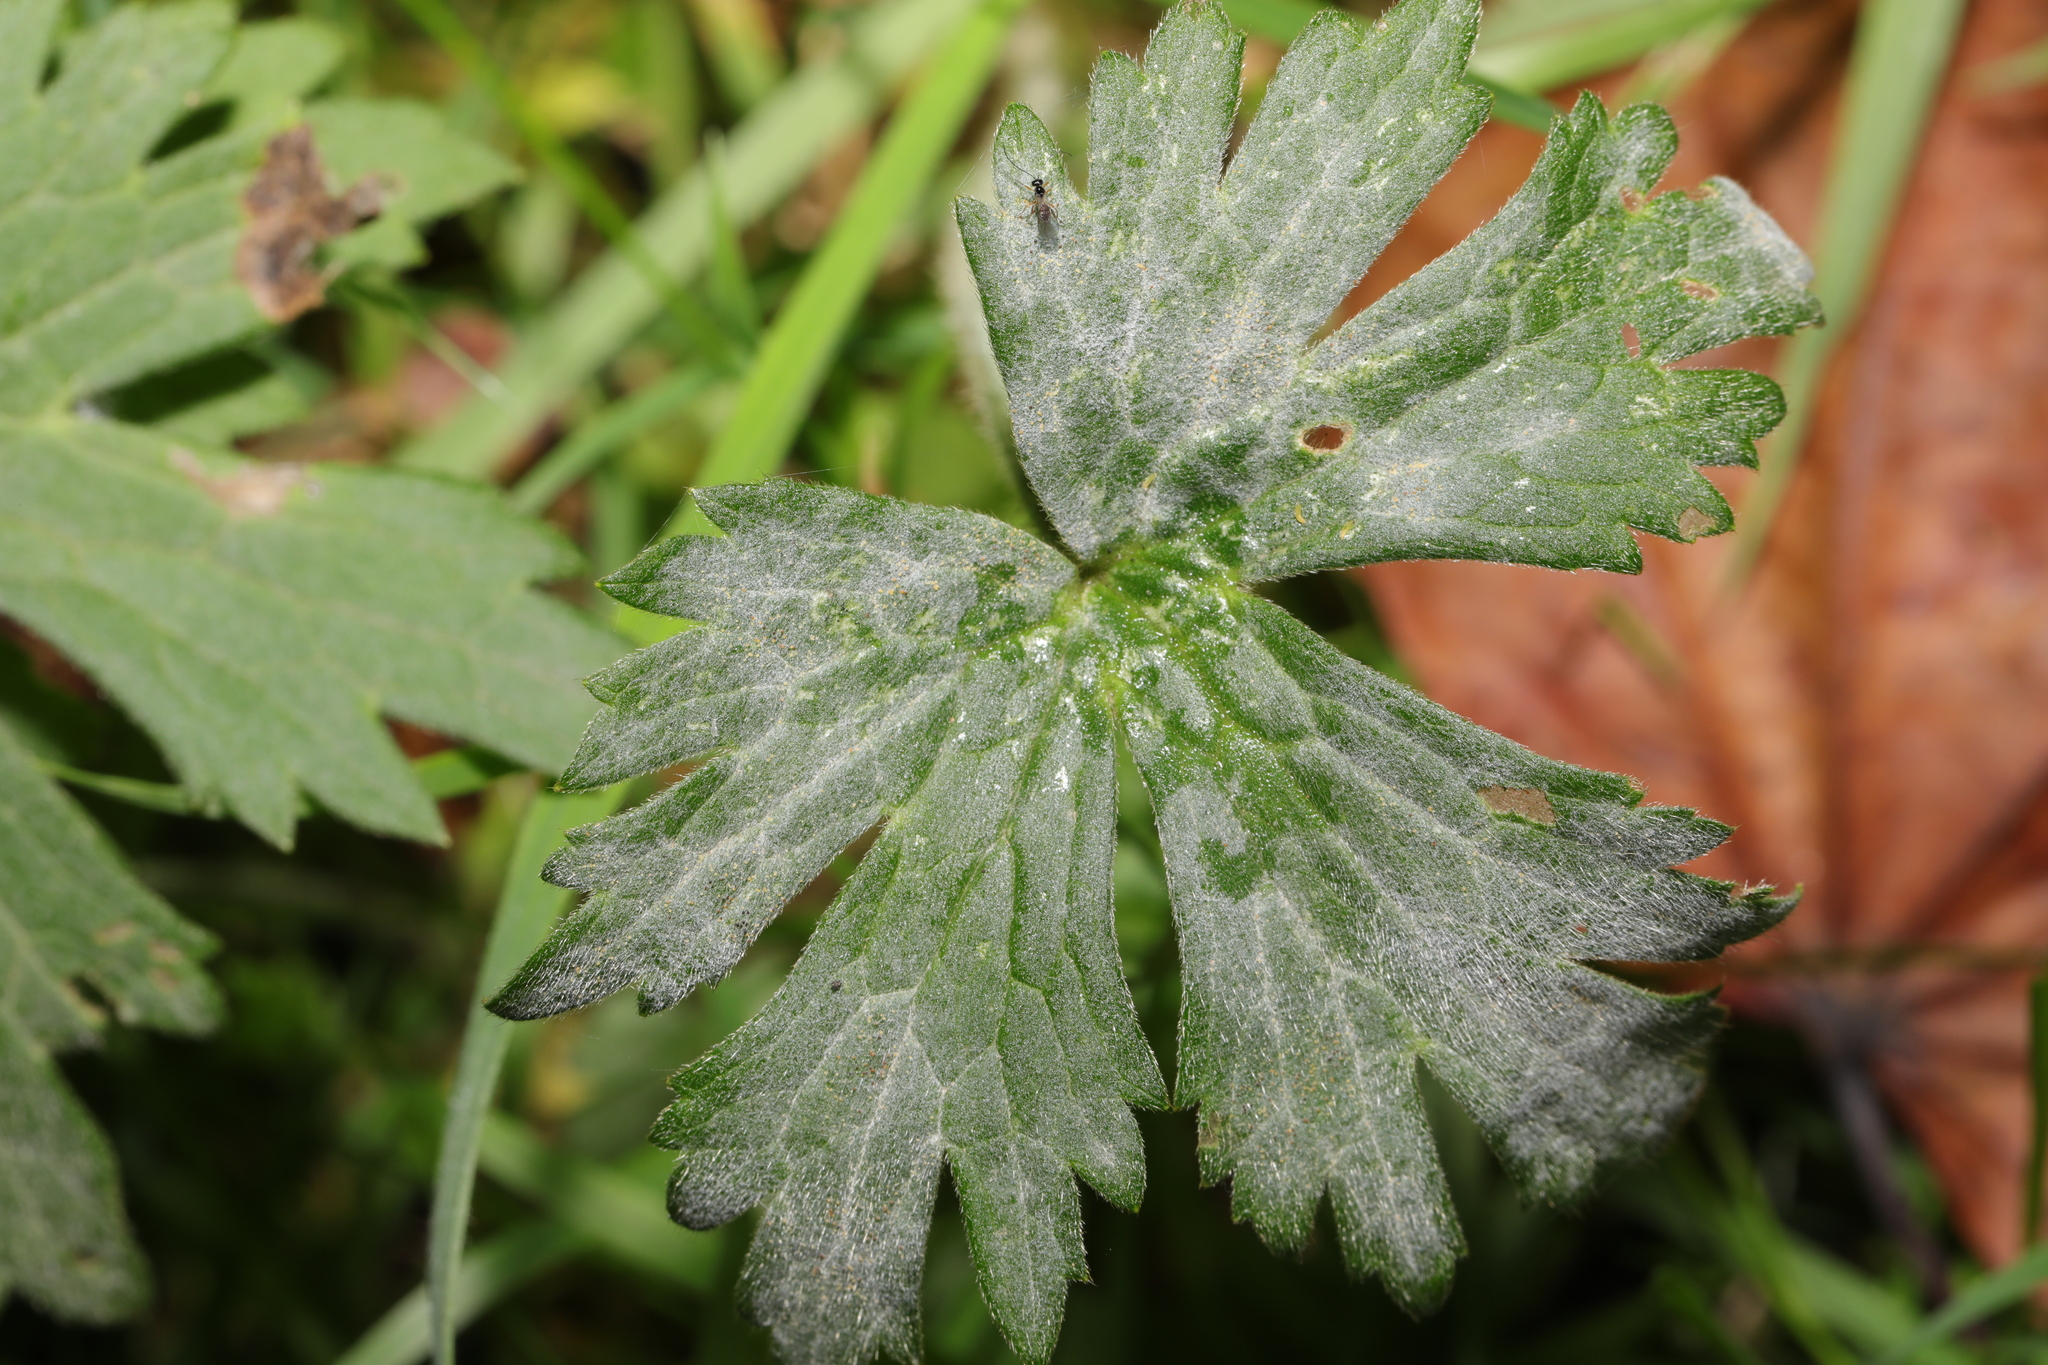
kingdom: Fungi
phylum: Ascomycota
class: Leotiomycetes
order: Helotiales
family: Erysiphaceae
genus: Erysiphe
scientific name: Erysiphe aquilegiae
